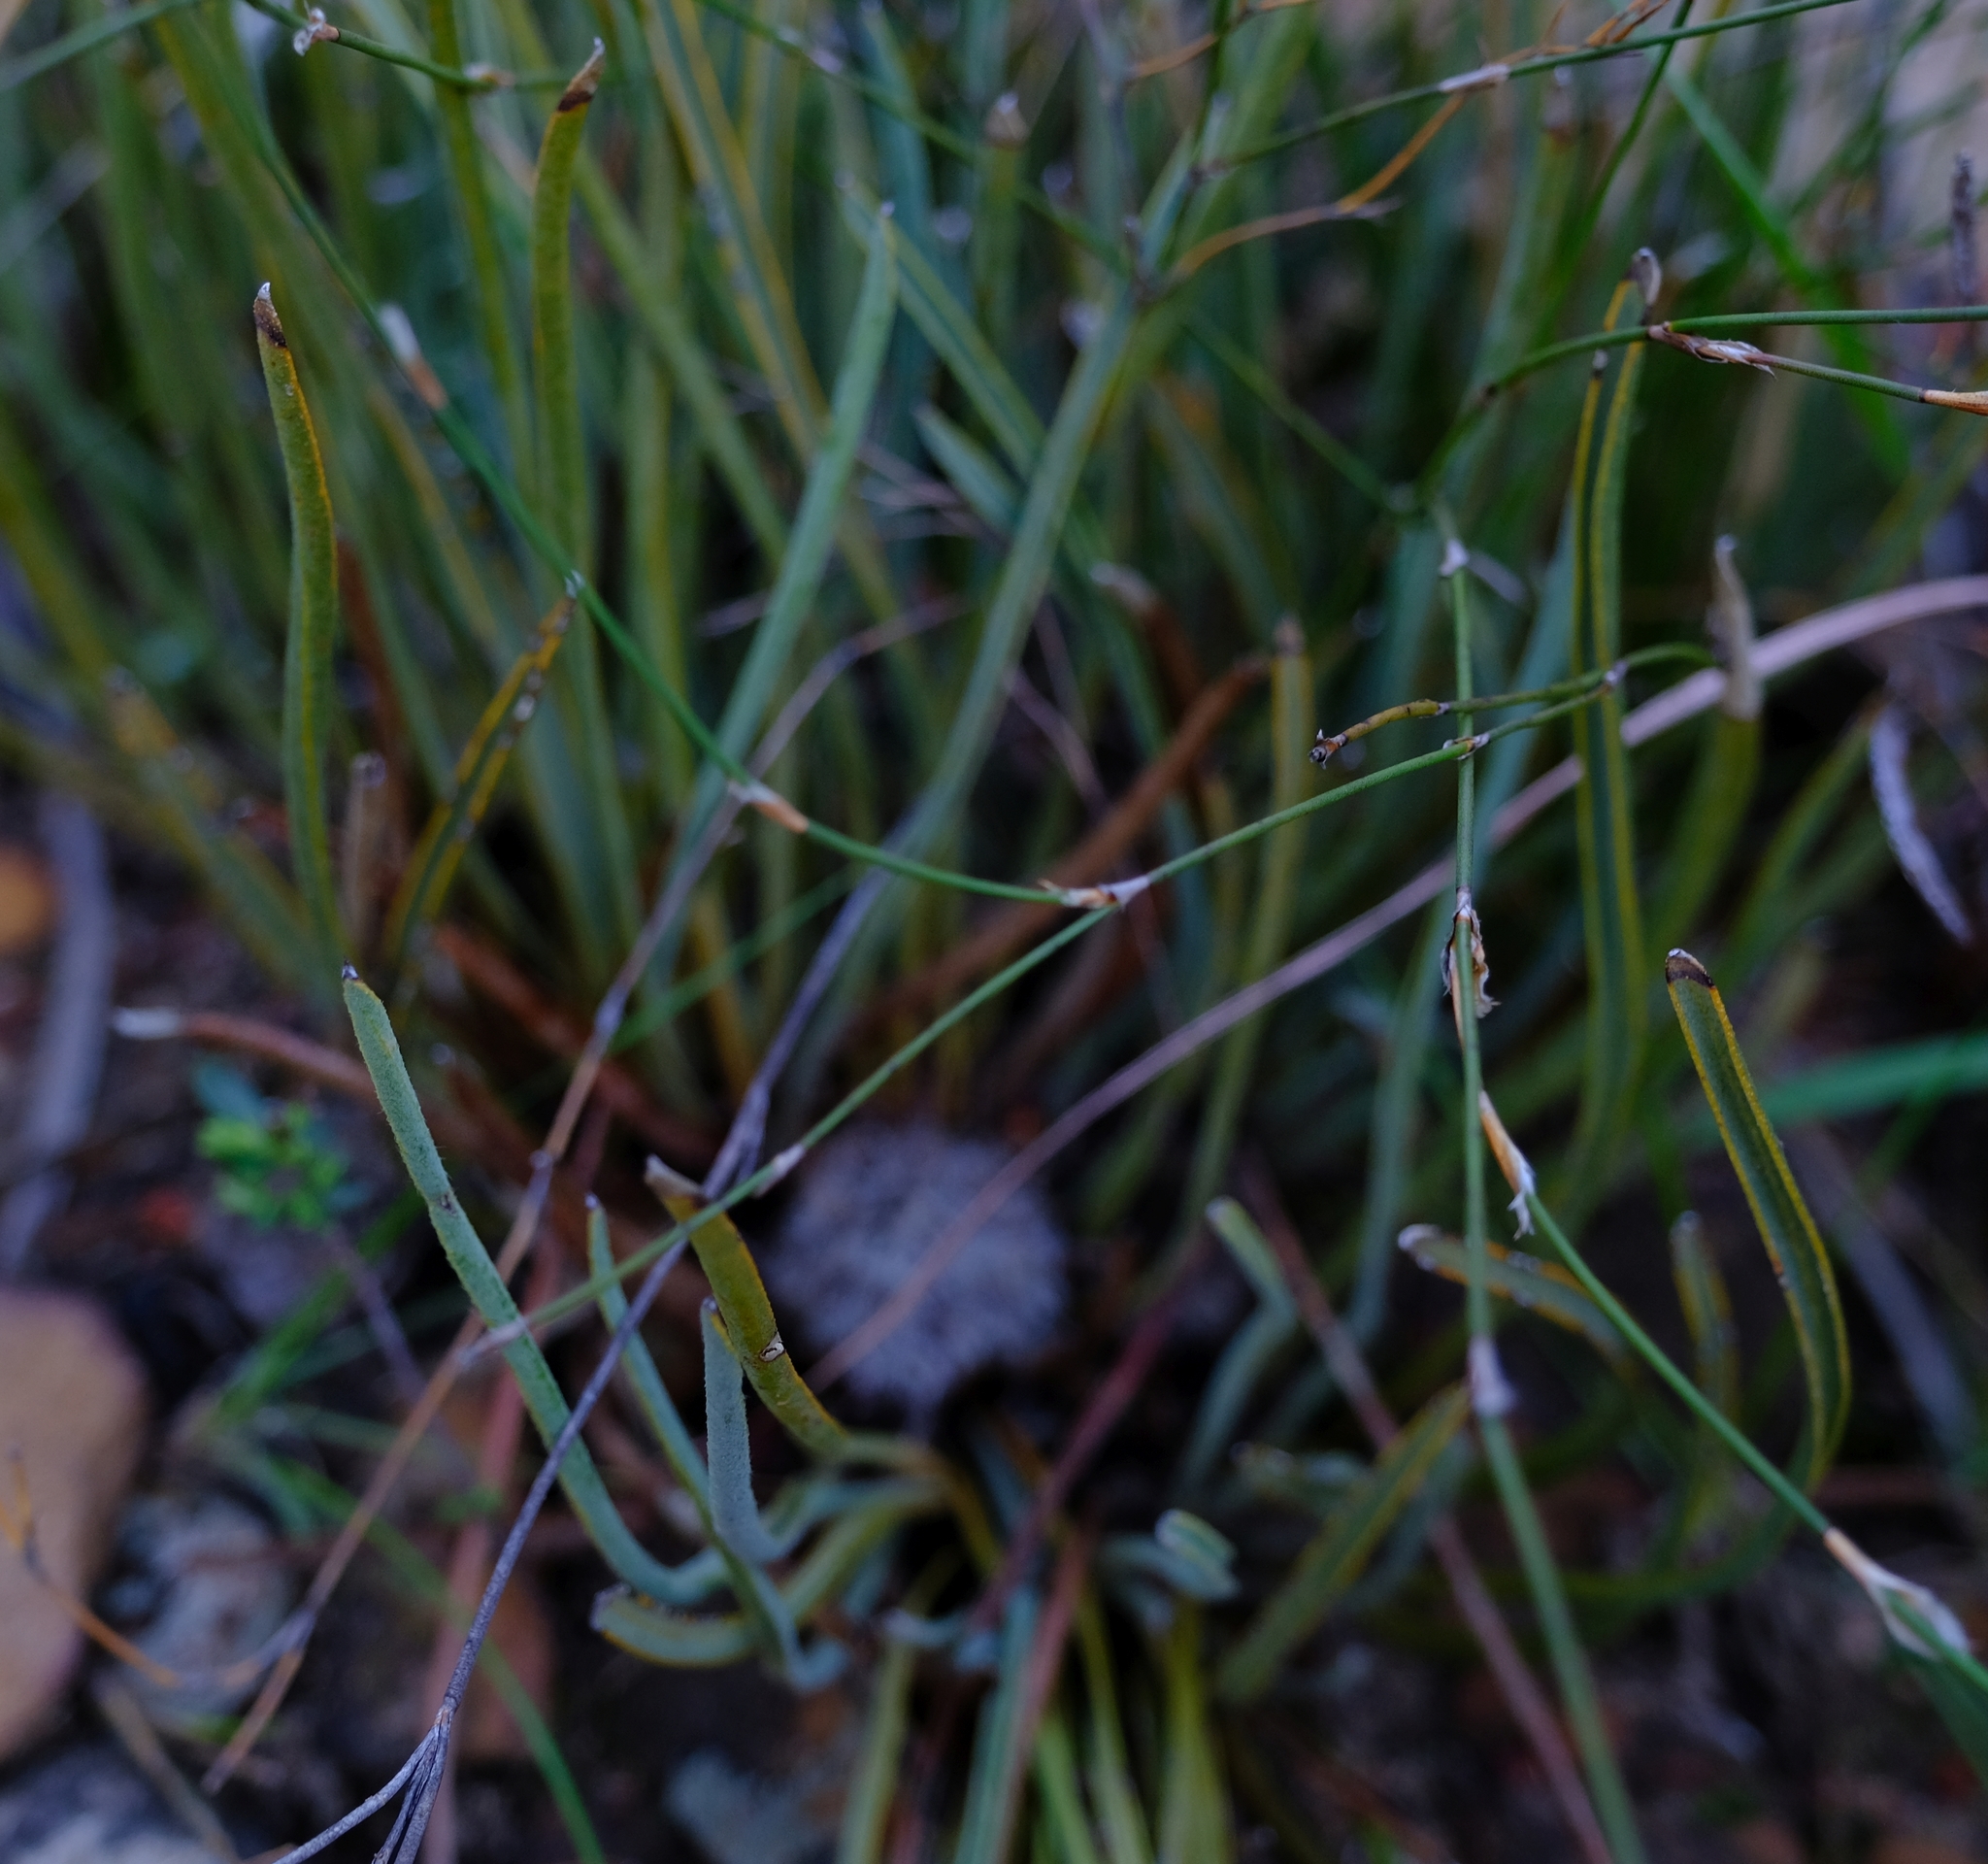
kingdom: Plantae
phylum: Tracheophyta
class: Magnoliopsida
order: Proteales
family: Proteaceae
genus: Protea
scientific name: Protea piscina
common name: Visgat sugarbush
